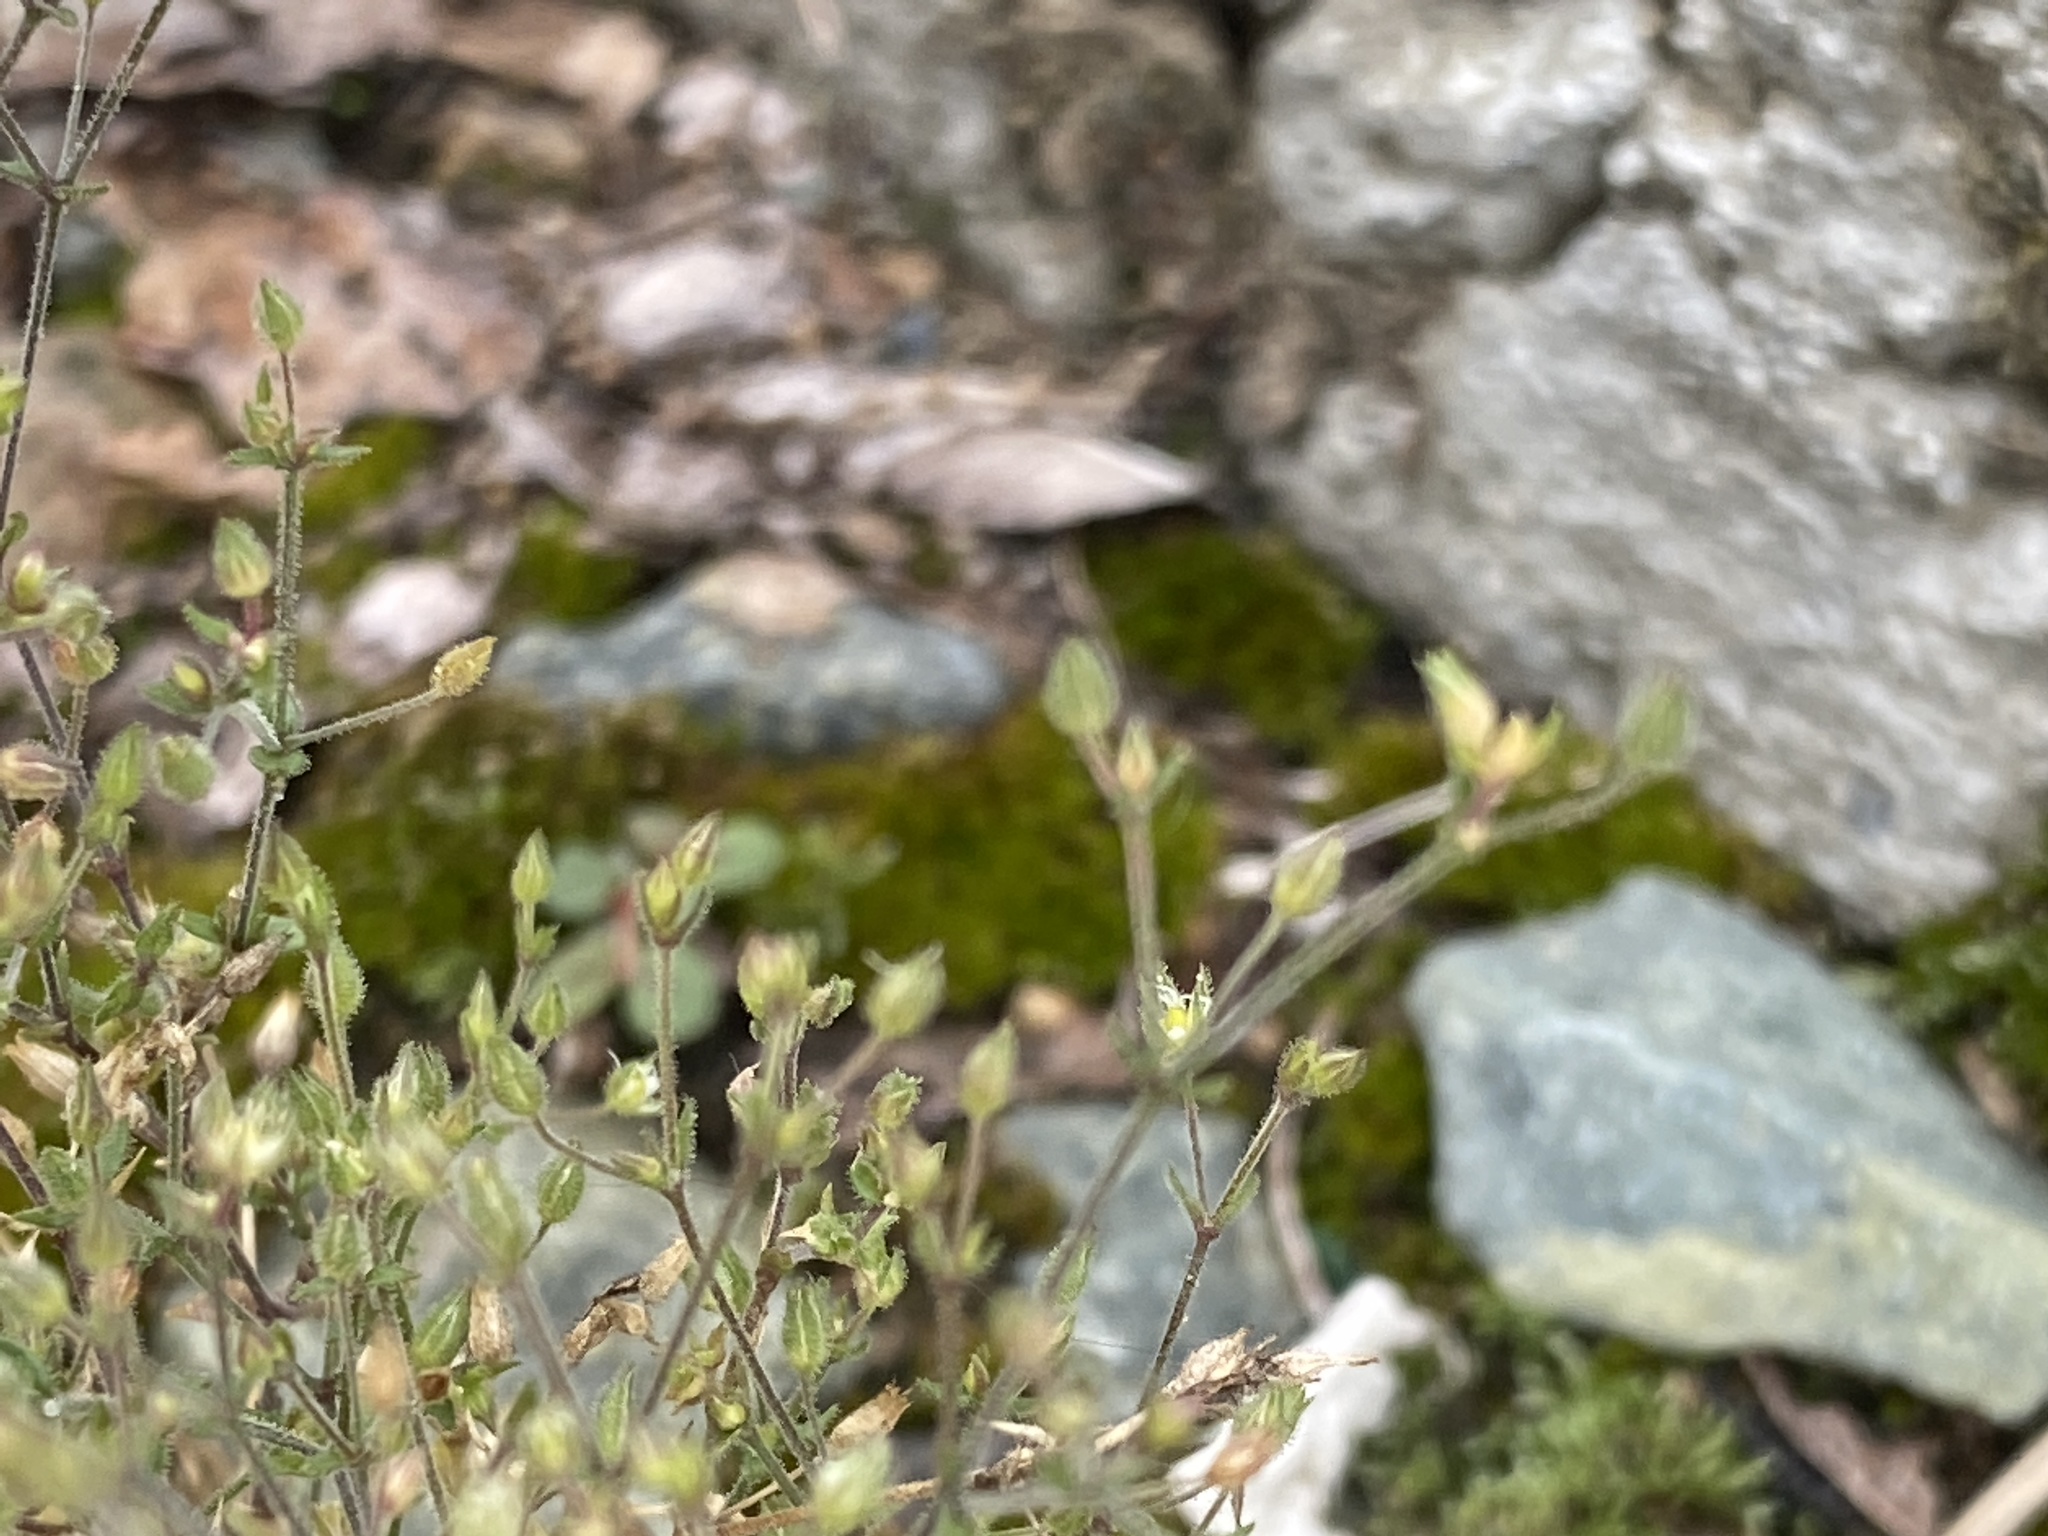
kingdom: Plantae
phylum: Tracheophyta
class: Magnoliopsida
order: Caryophyllales
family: Caryophyllaceae
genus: Sagina
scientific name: Sagina decumbens
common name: Decumbent pearlwort
